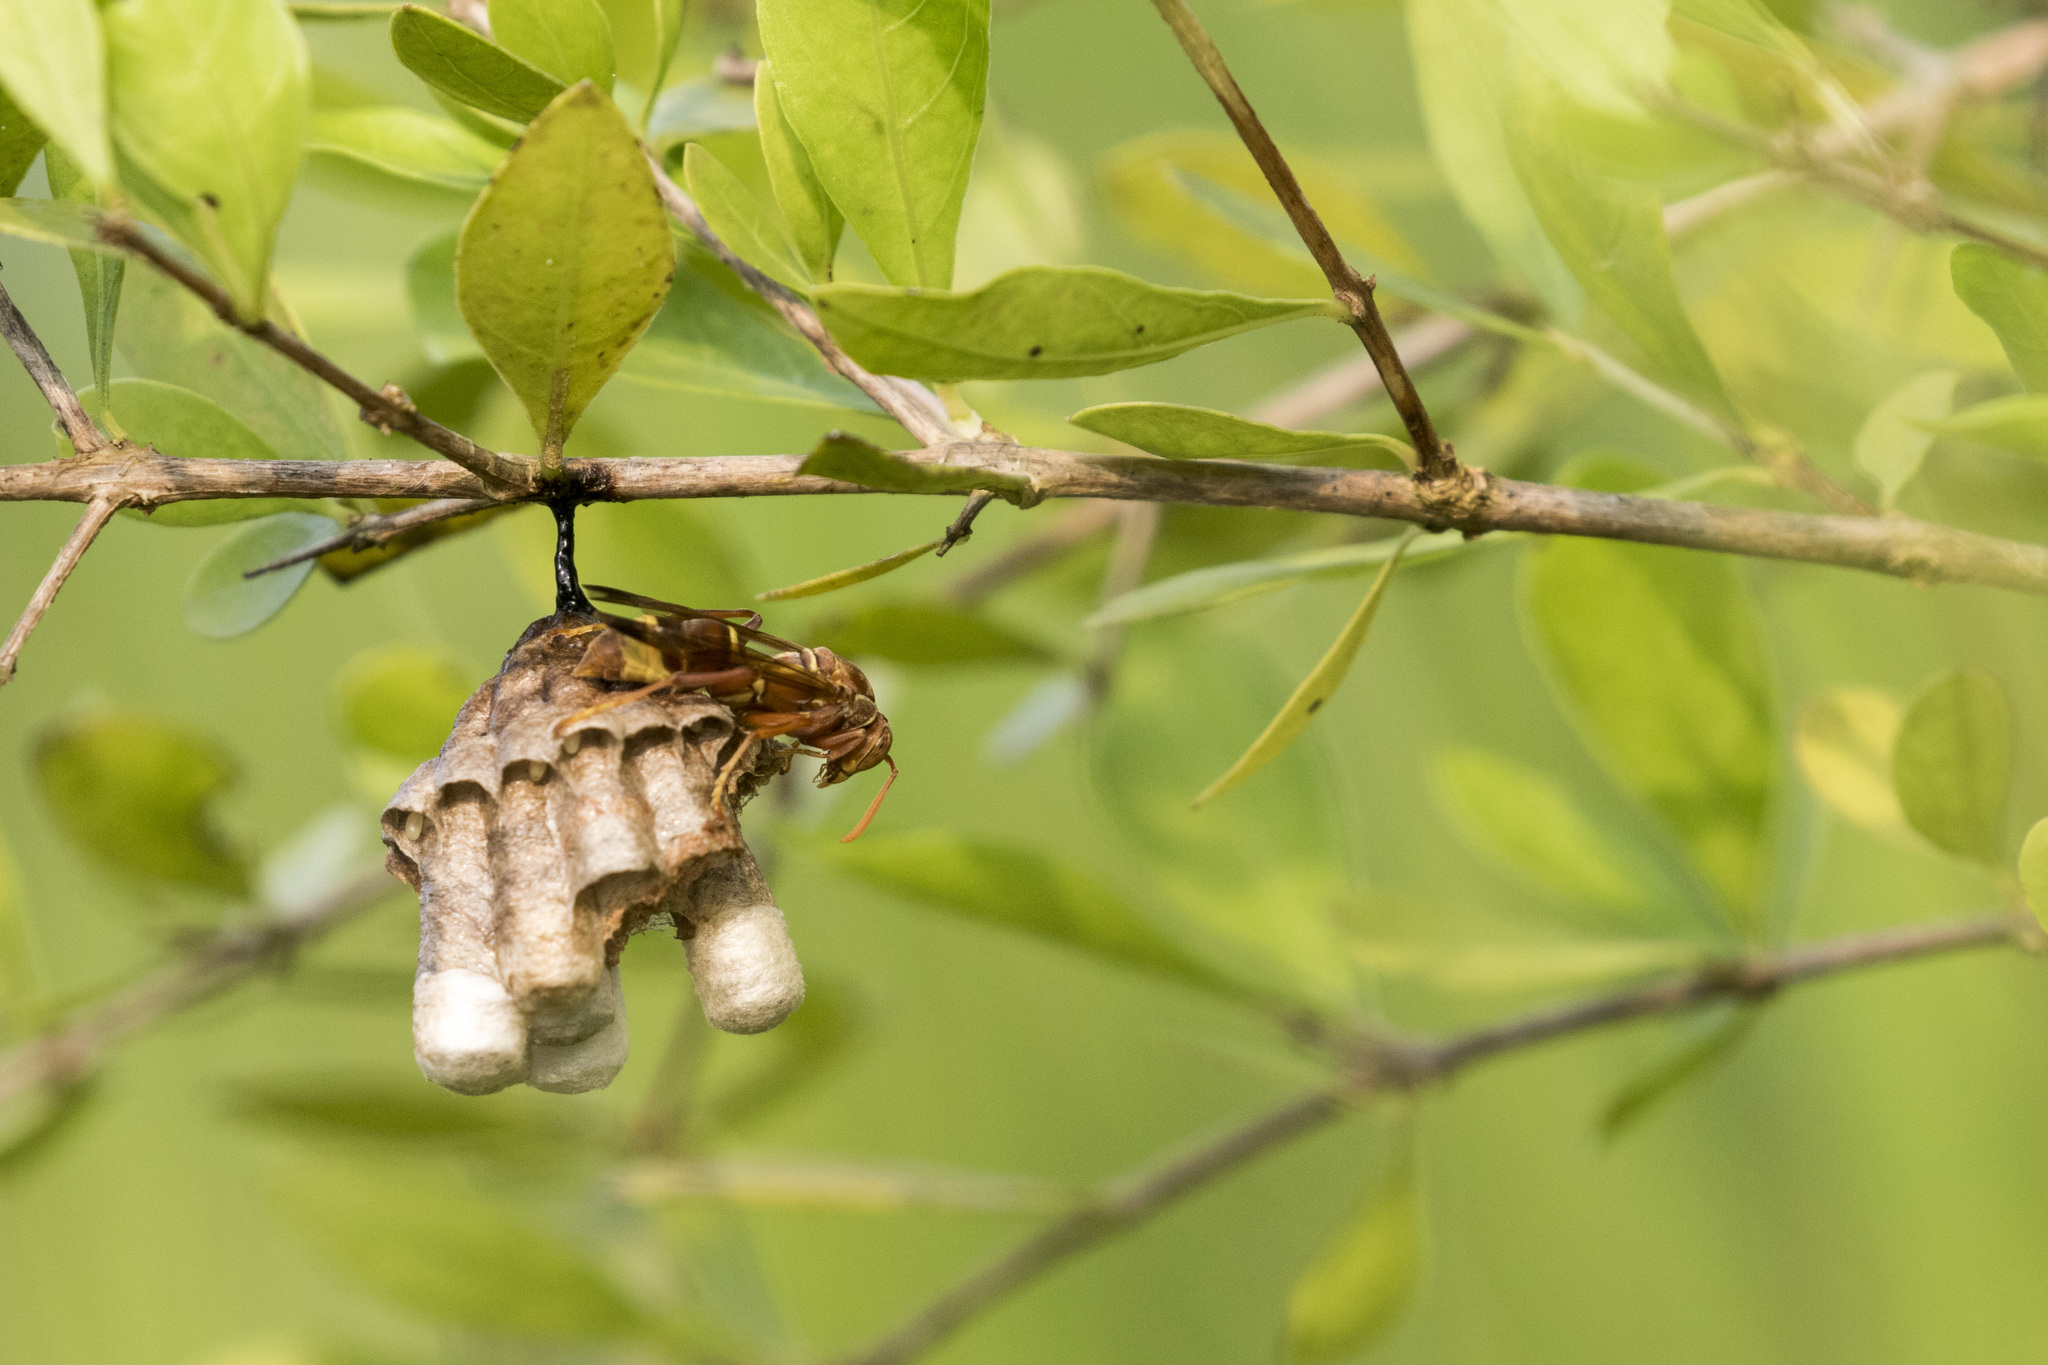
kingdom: Animalia
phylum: Arthropoda
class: Insecta
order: Hymenoptera
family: Eumenidae
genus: Polistes
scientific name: Polistes stigma
